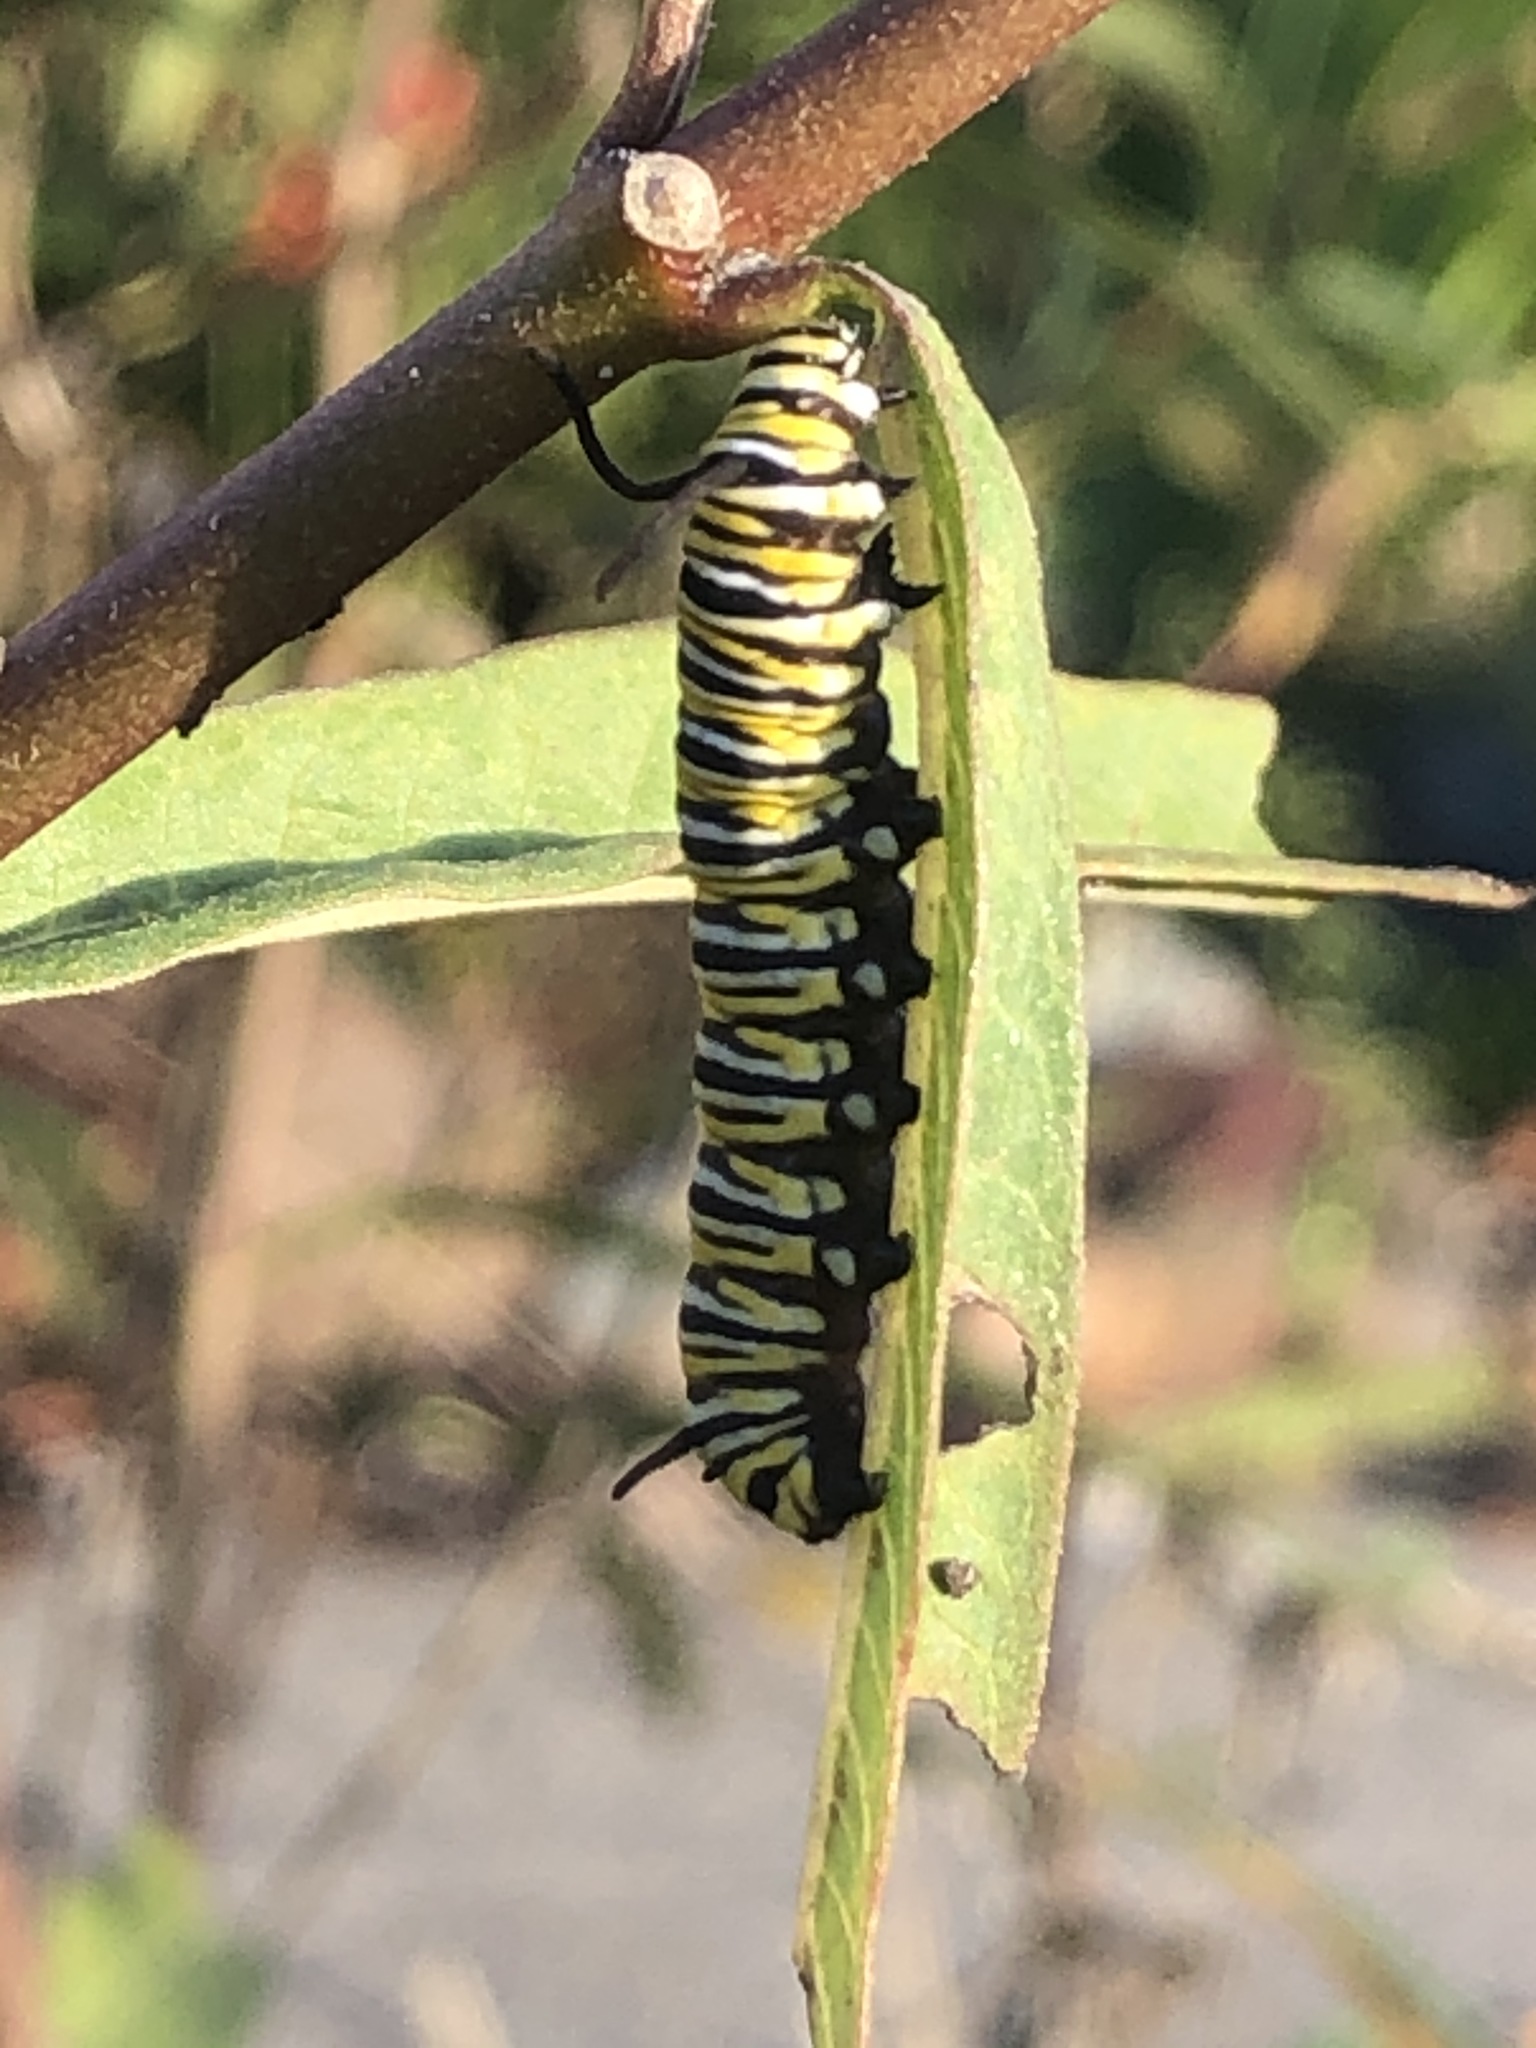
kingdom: Animalia
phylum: Arthropoda
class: Insecta
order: Lepidoptera
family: Nymphalidae
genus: Danaus
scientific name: Danaus plexippus
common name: Monarch
